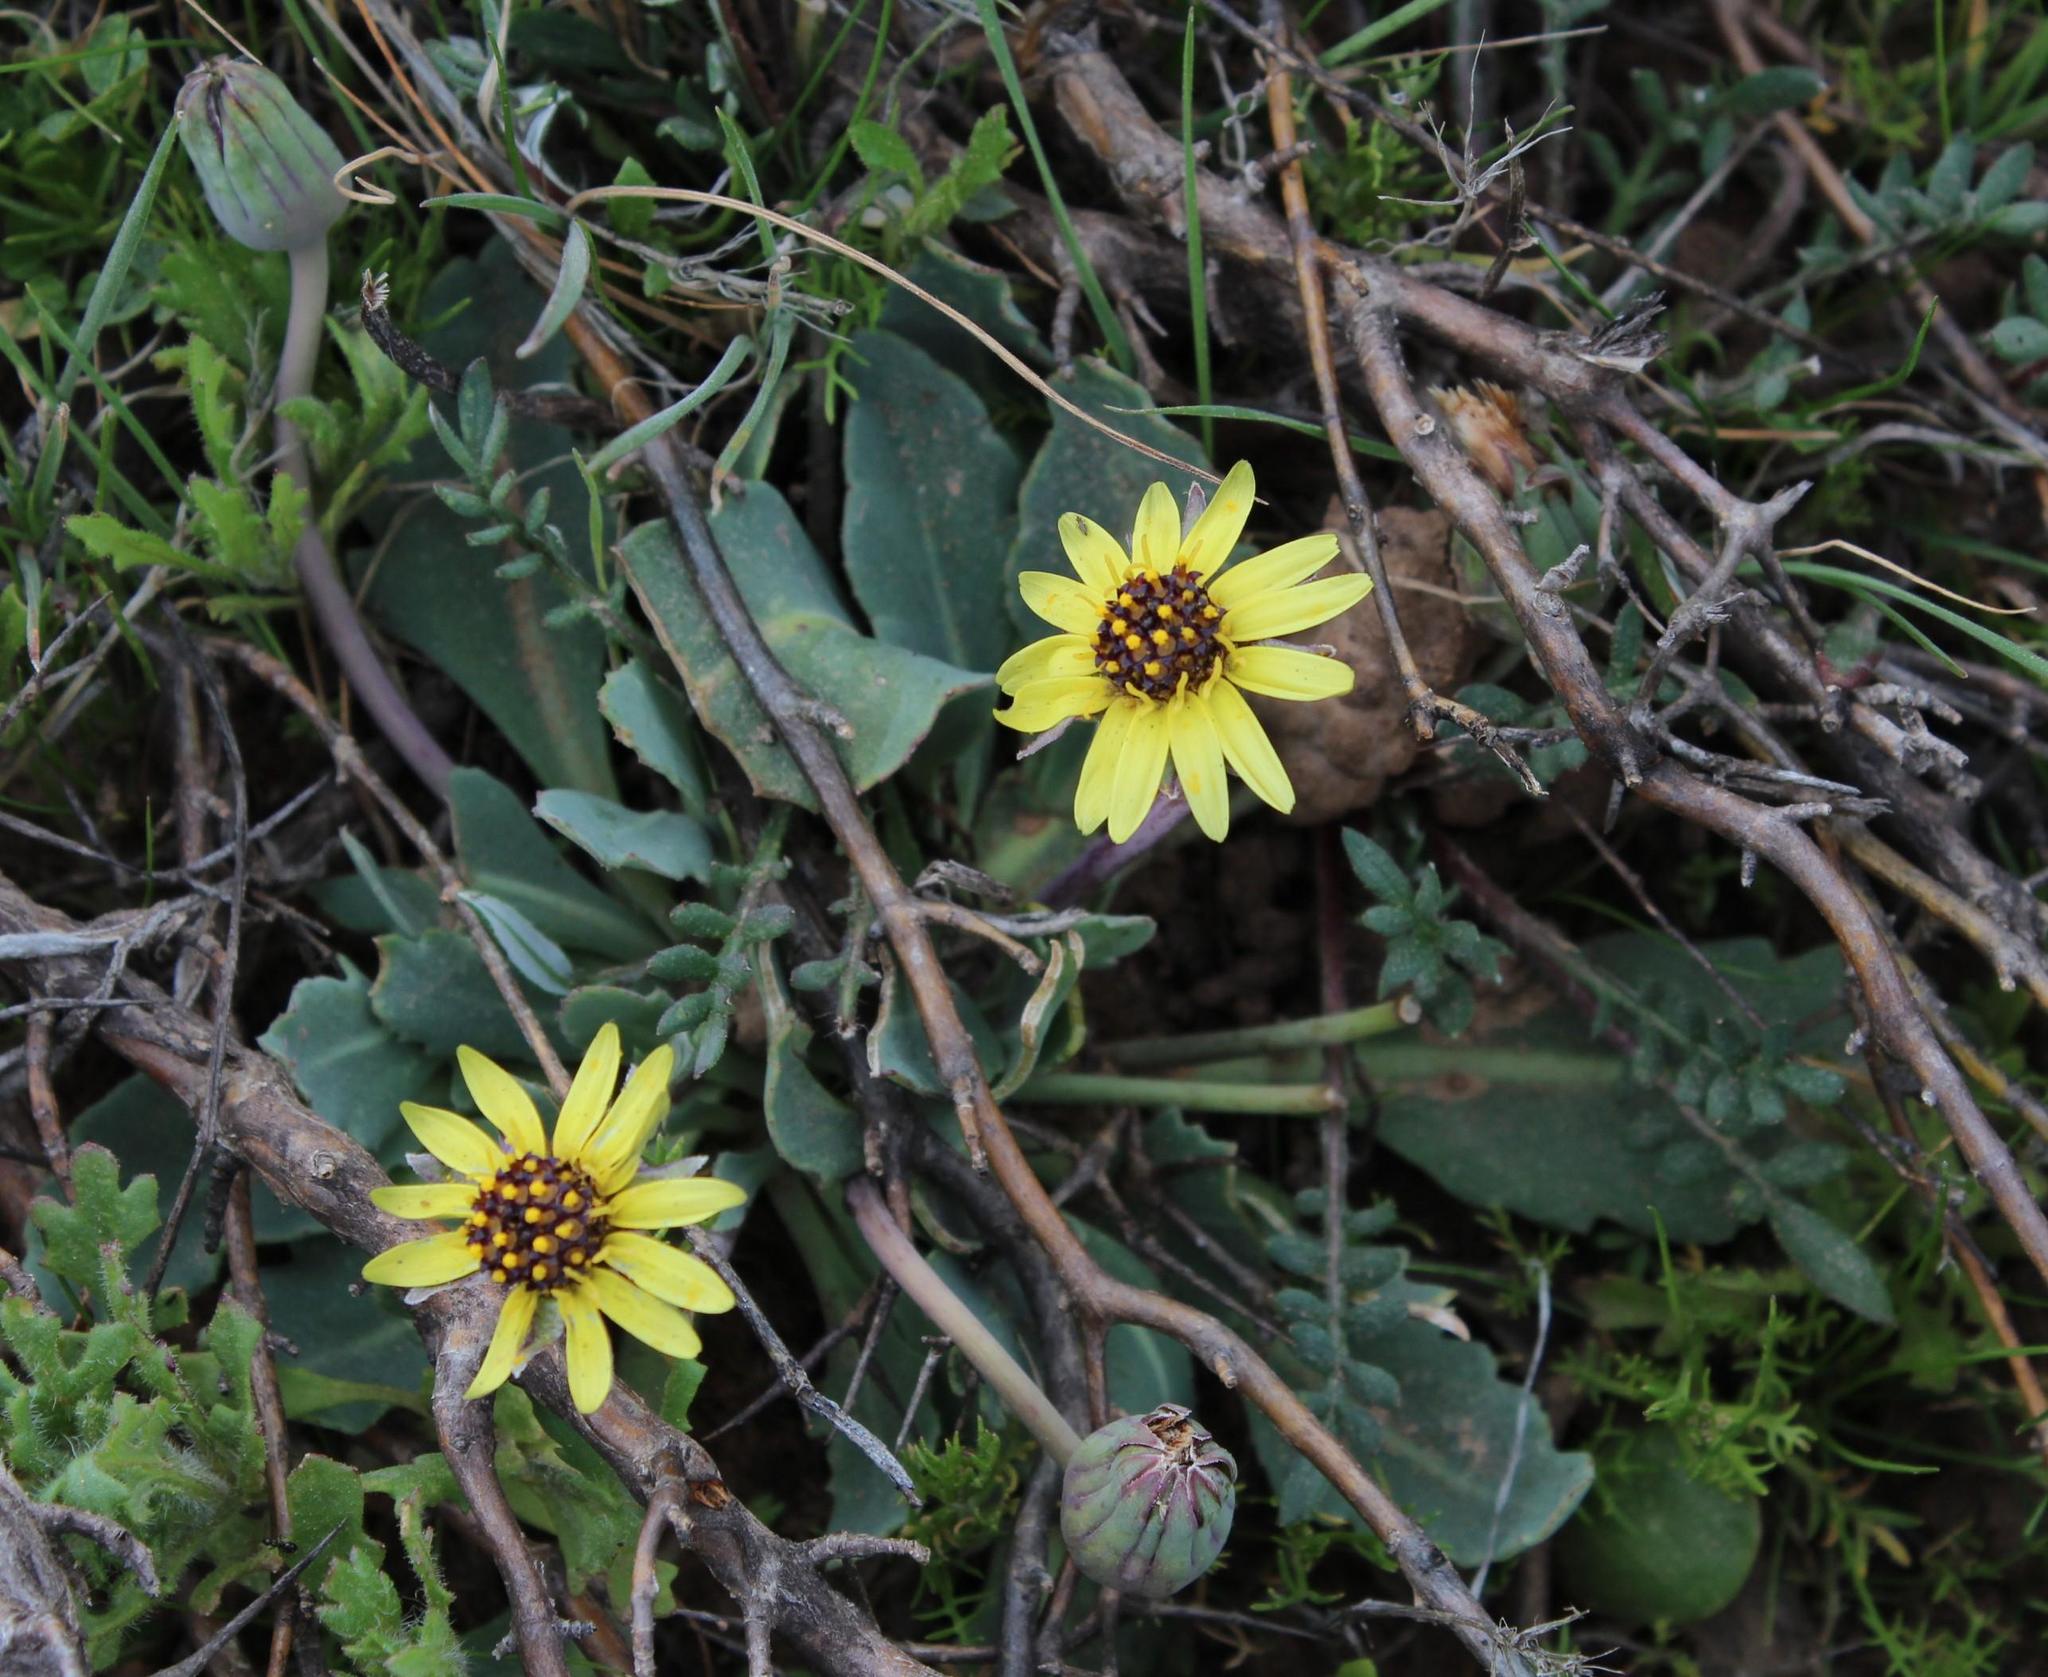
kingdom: Plantae
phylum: Tracheophyta
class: Magnoliopsida
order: Asterales
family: Asteraceae
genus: Othonna
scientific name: Othonna auriculifolia
